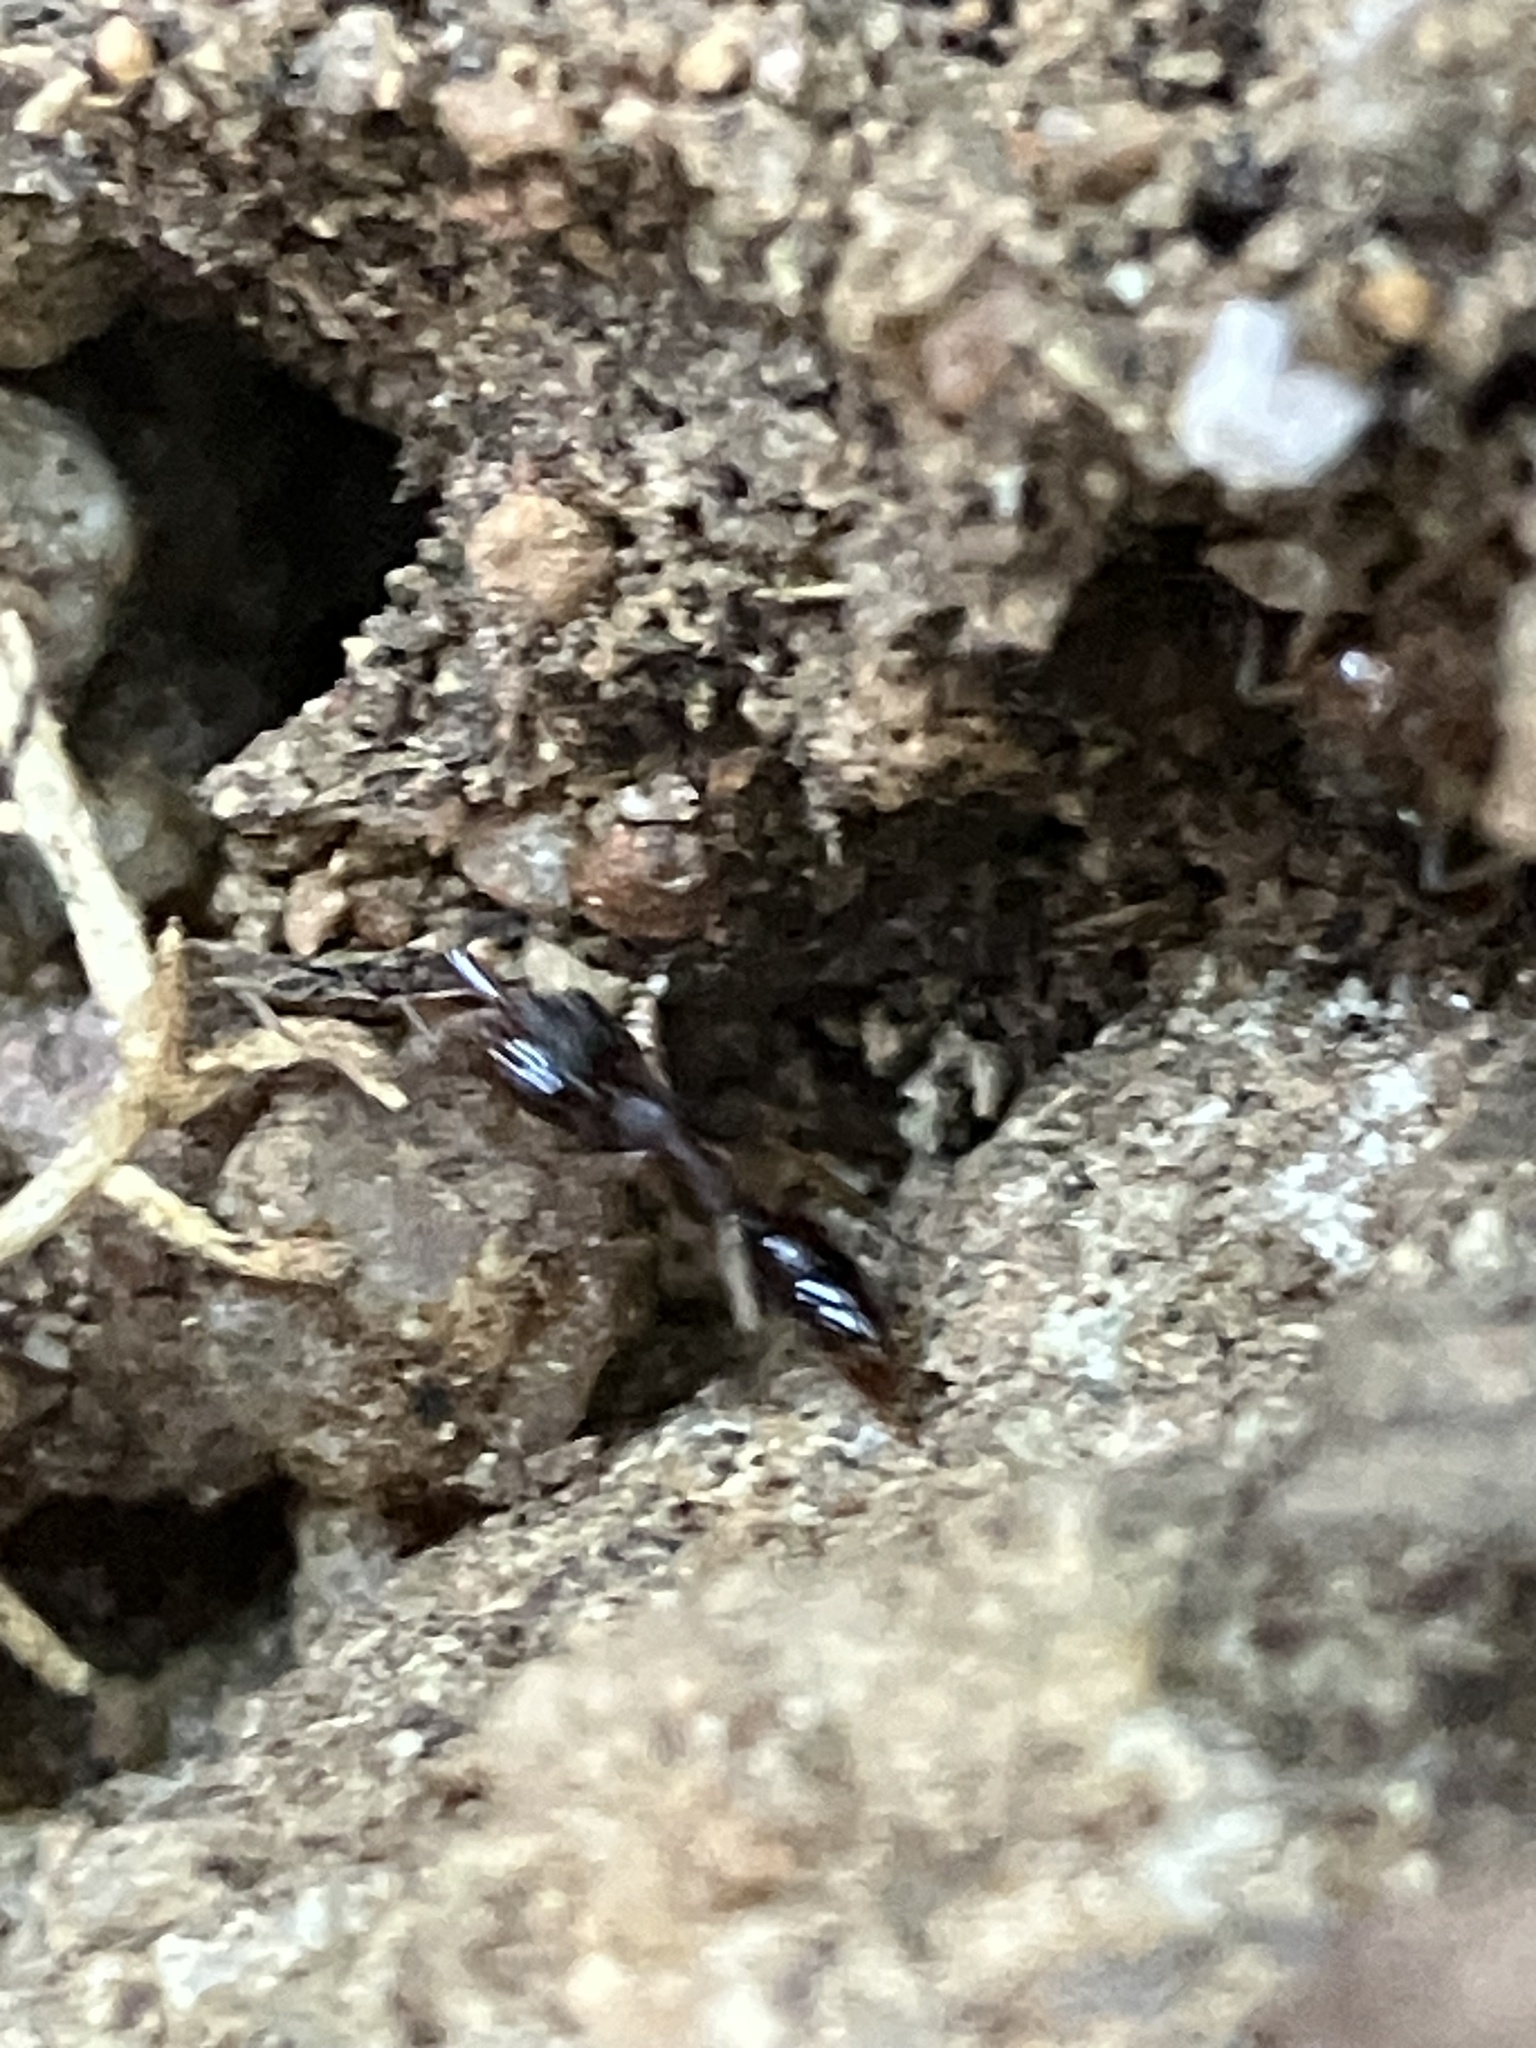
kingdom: Animalia
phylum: Arthropoda
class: Insecta
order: Hymenoptera
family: Formicidae
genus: Anochetus
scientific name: Anochetus graeffei
